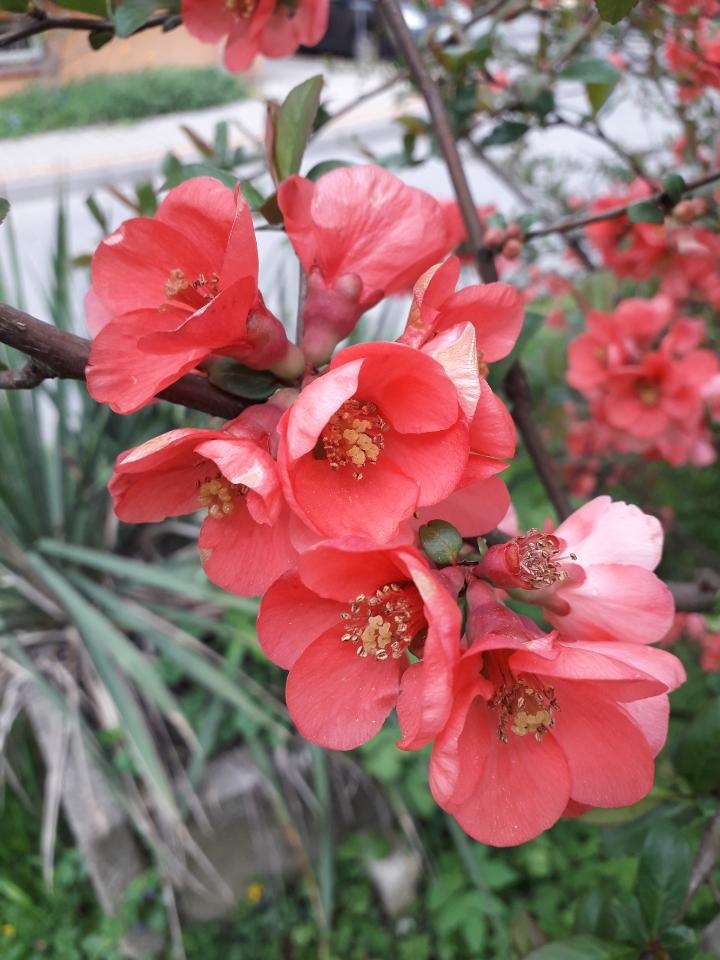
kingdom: Plantae
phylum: Tracheophyta
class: Magnoliopsida
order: Rosales
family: Rosaceae
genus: Chaenomeles
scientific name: Chaenomeles speciosa
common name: Japanese quince
